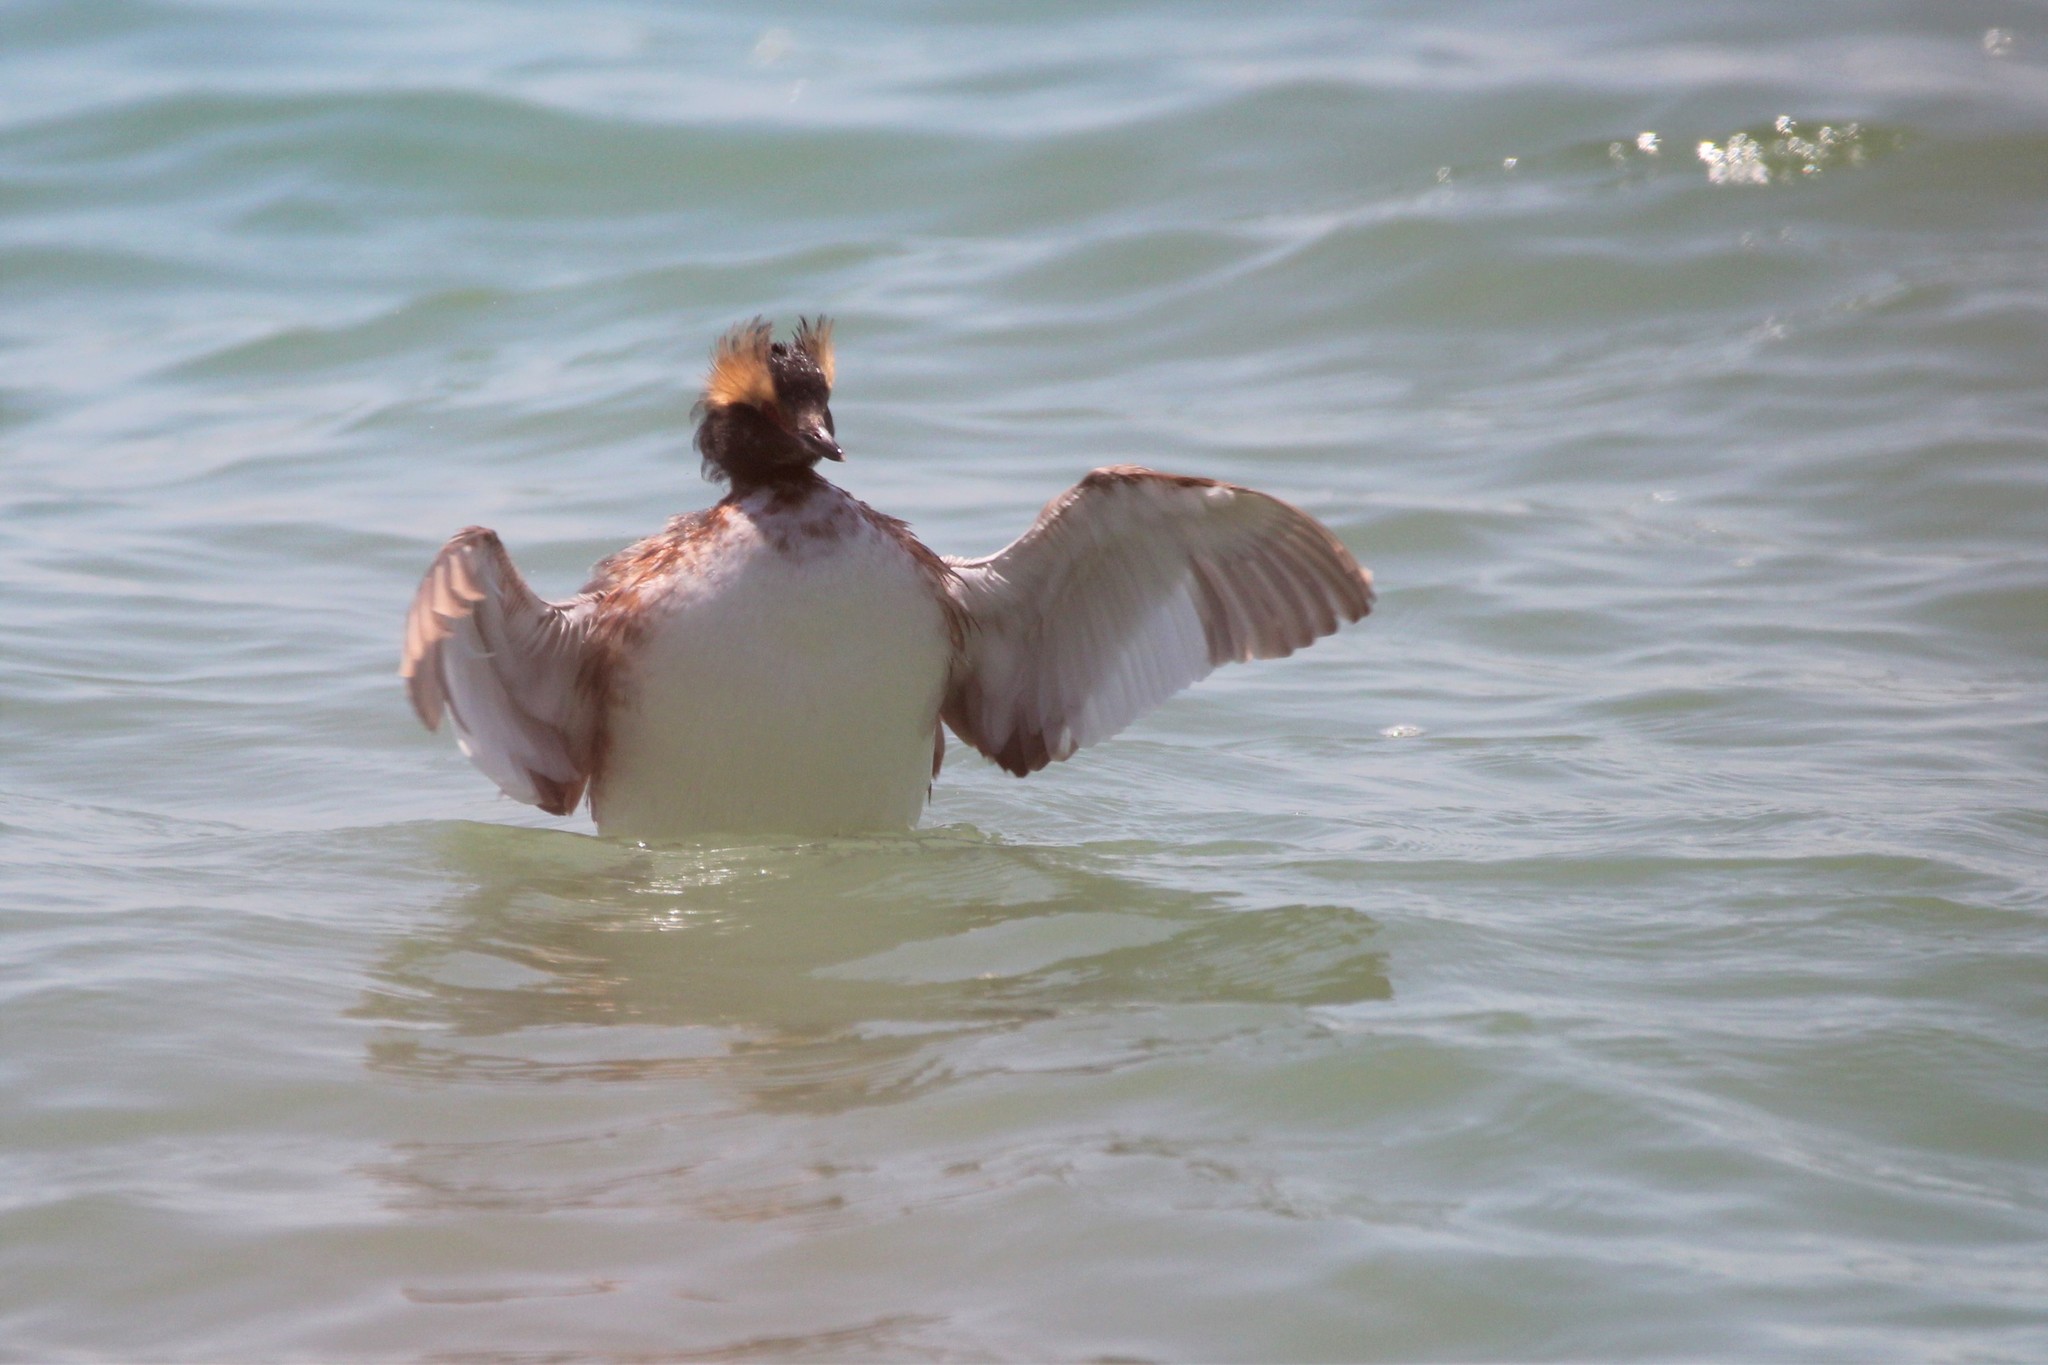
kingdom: Animalia
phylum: Chordata
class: Aves
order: Podicipediformes
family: Podicipedidae
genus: Podiceps
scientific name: Podiceps auritus
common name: Horned grebe
